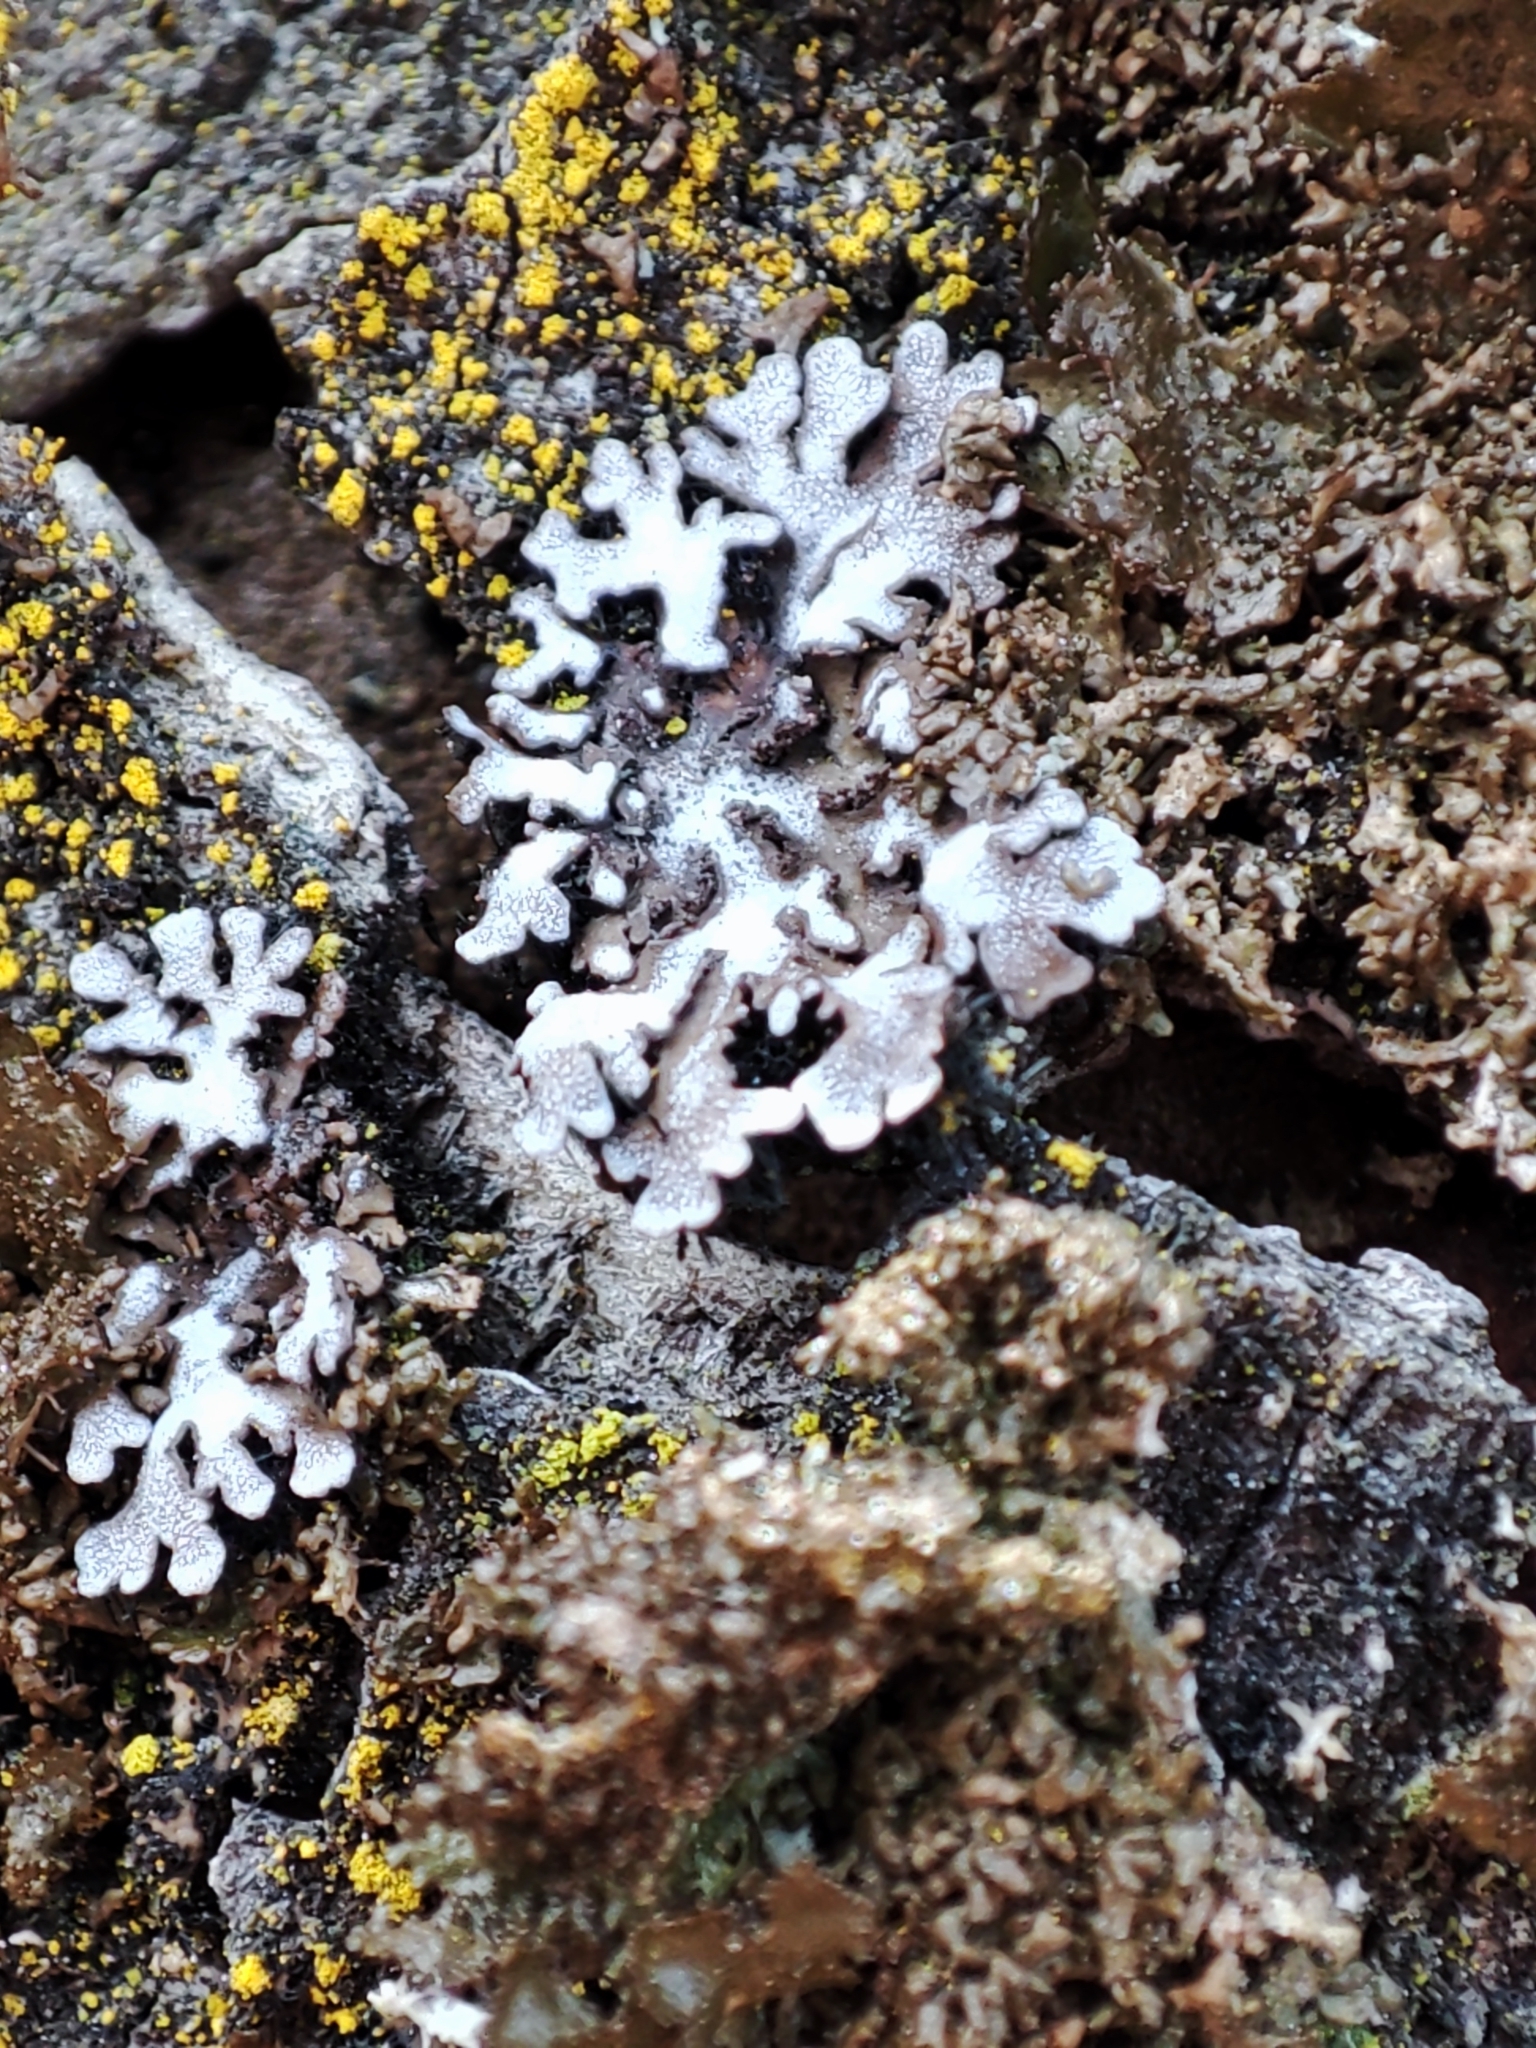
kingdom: Fungi
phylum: Ascomycota
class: Lecanoromycetes
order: Caliciales
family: Physciaceae
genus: Physconia
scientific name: Physconia enteroxantha
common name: Yellow-edged frost lichen
